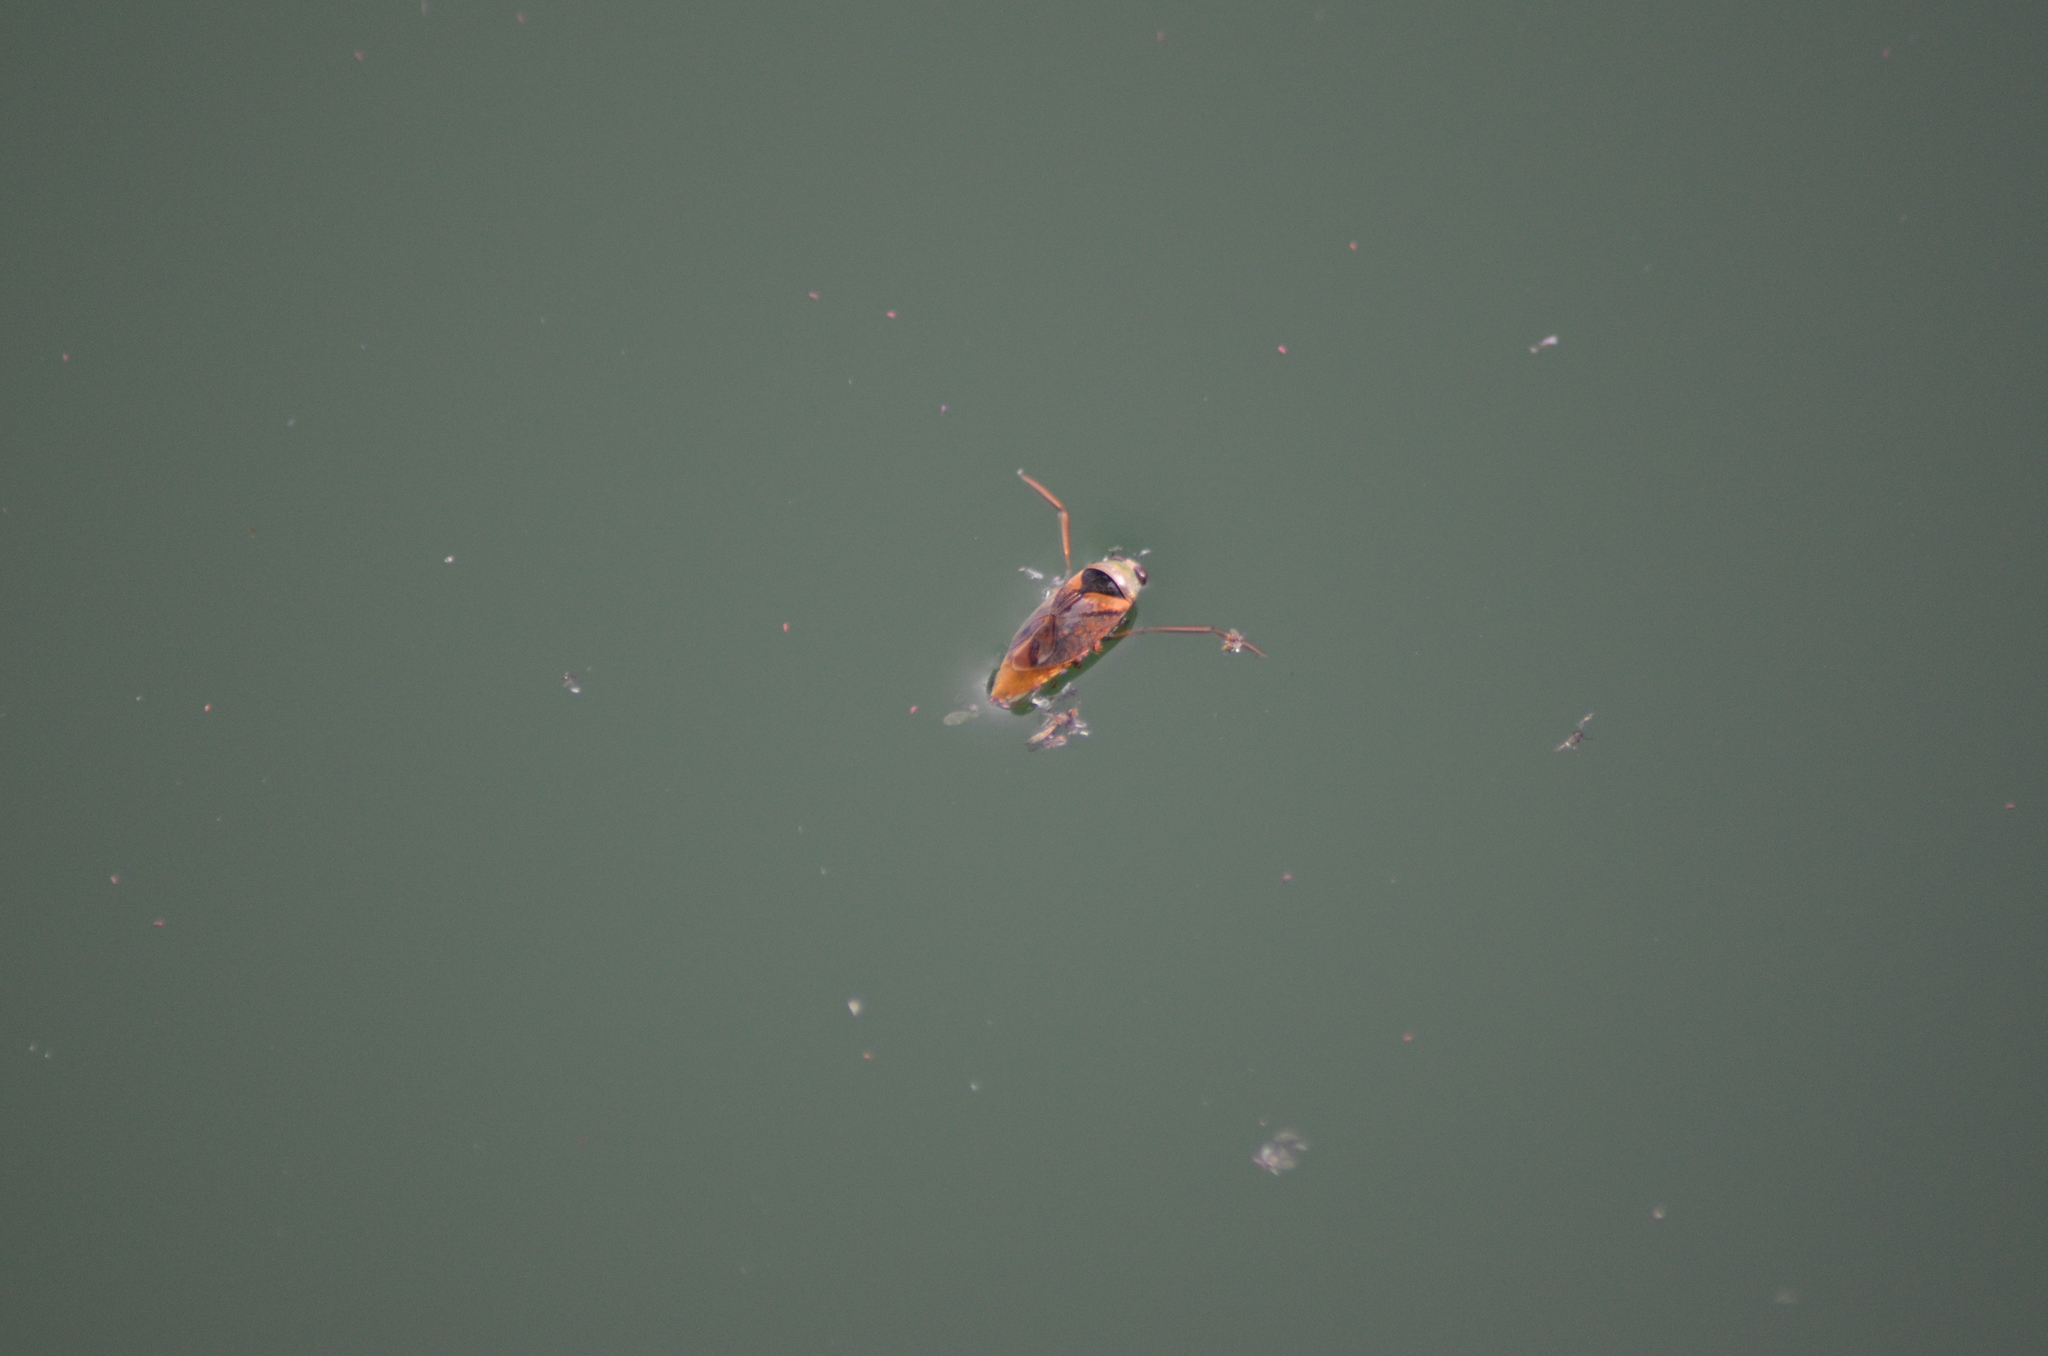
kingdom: Animalia
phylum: Arthropoda
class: Insecta
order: Hemiptera
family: Notonectidae
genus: Notonecta
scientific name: Notonecta maculata
